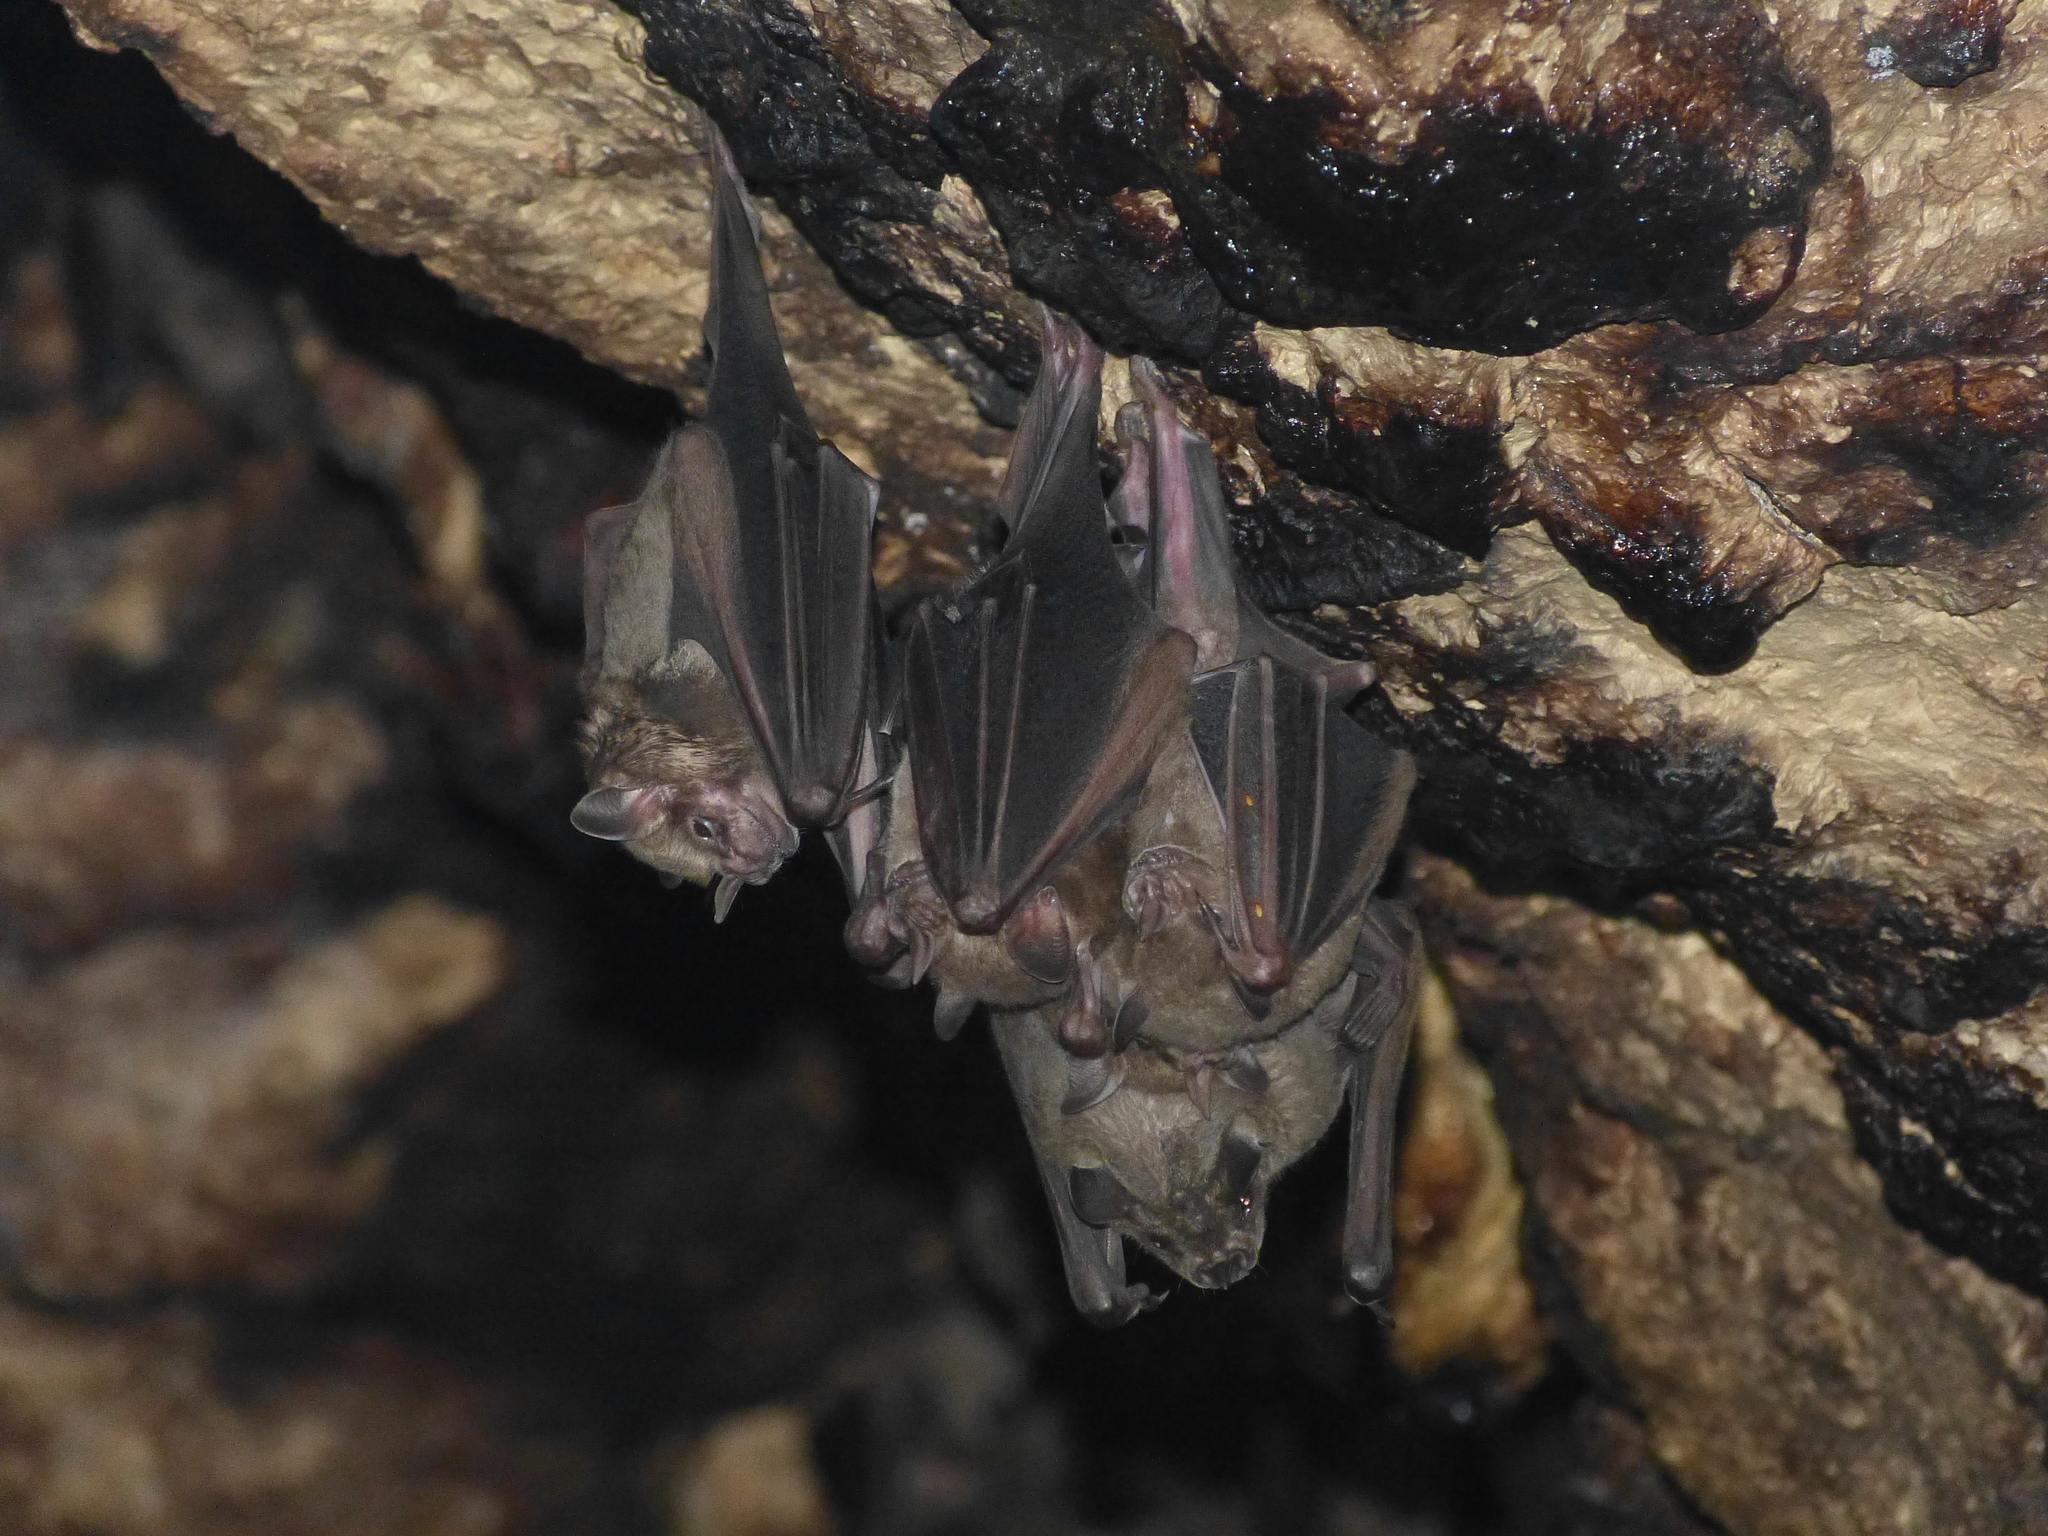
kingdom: Animalia
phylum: Chordata
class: Mammalia
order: Chiroptera
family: Phyllostomidae
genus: Artibeus
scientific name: Artibeus jamaicensis
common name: Jamaican fruit-eating bat
